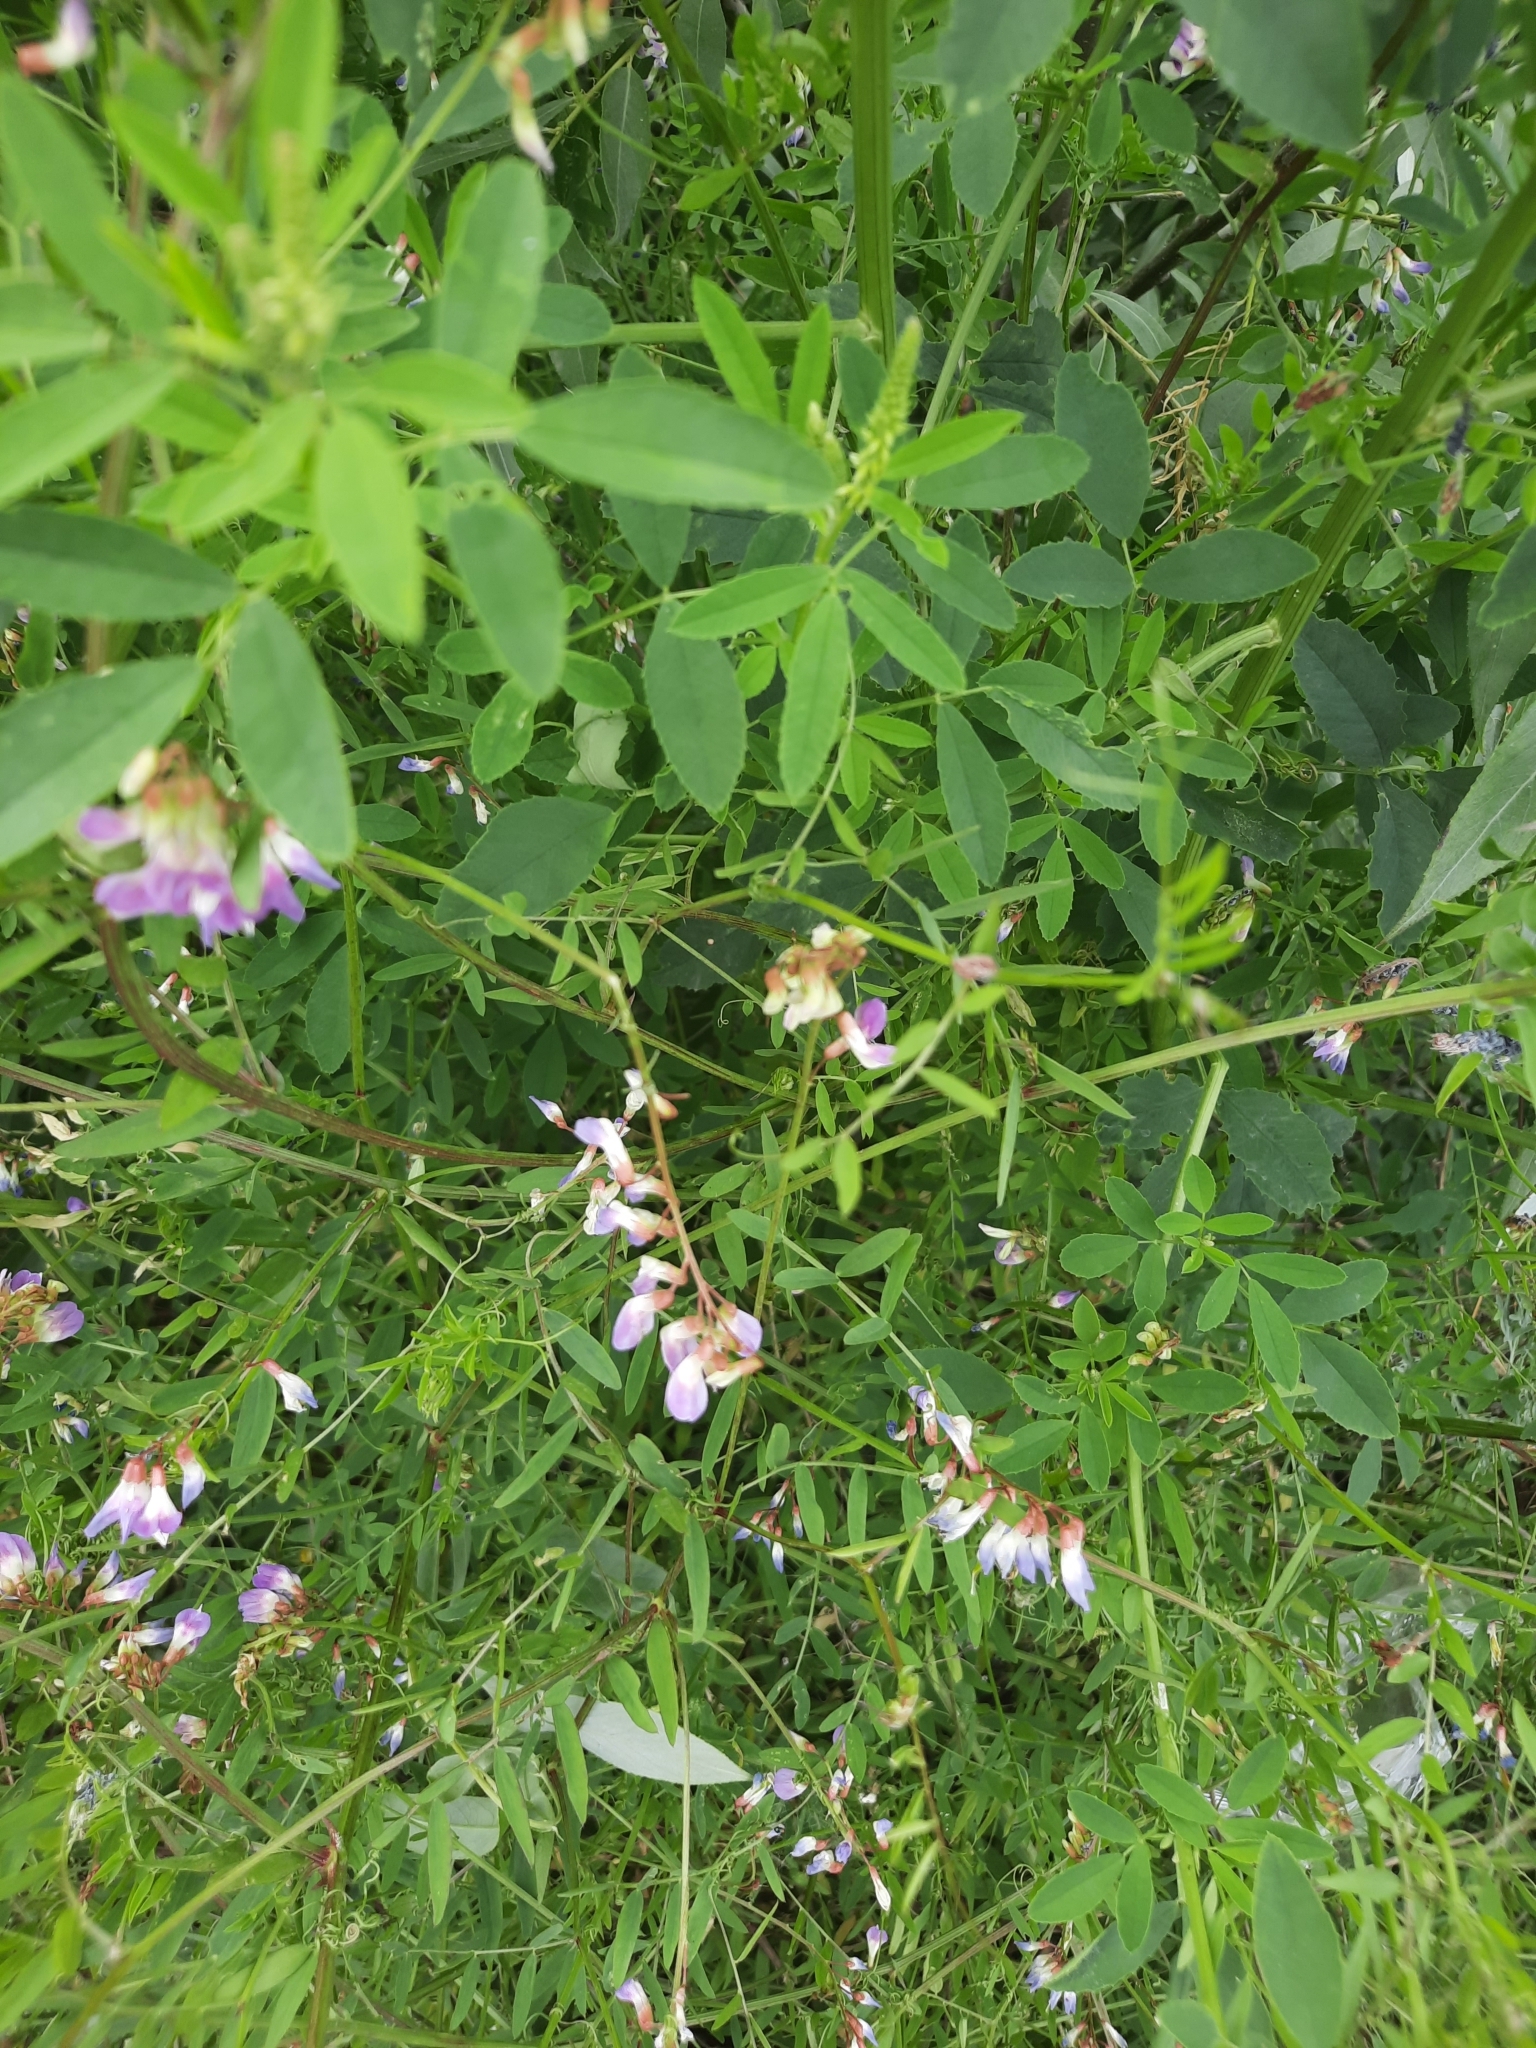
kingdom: Plantae
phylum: Tracheophyta
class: Magnoliopsida
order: Fabales
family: Fabaceae
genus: Vicia
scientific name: Vicia biennis
